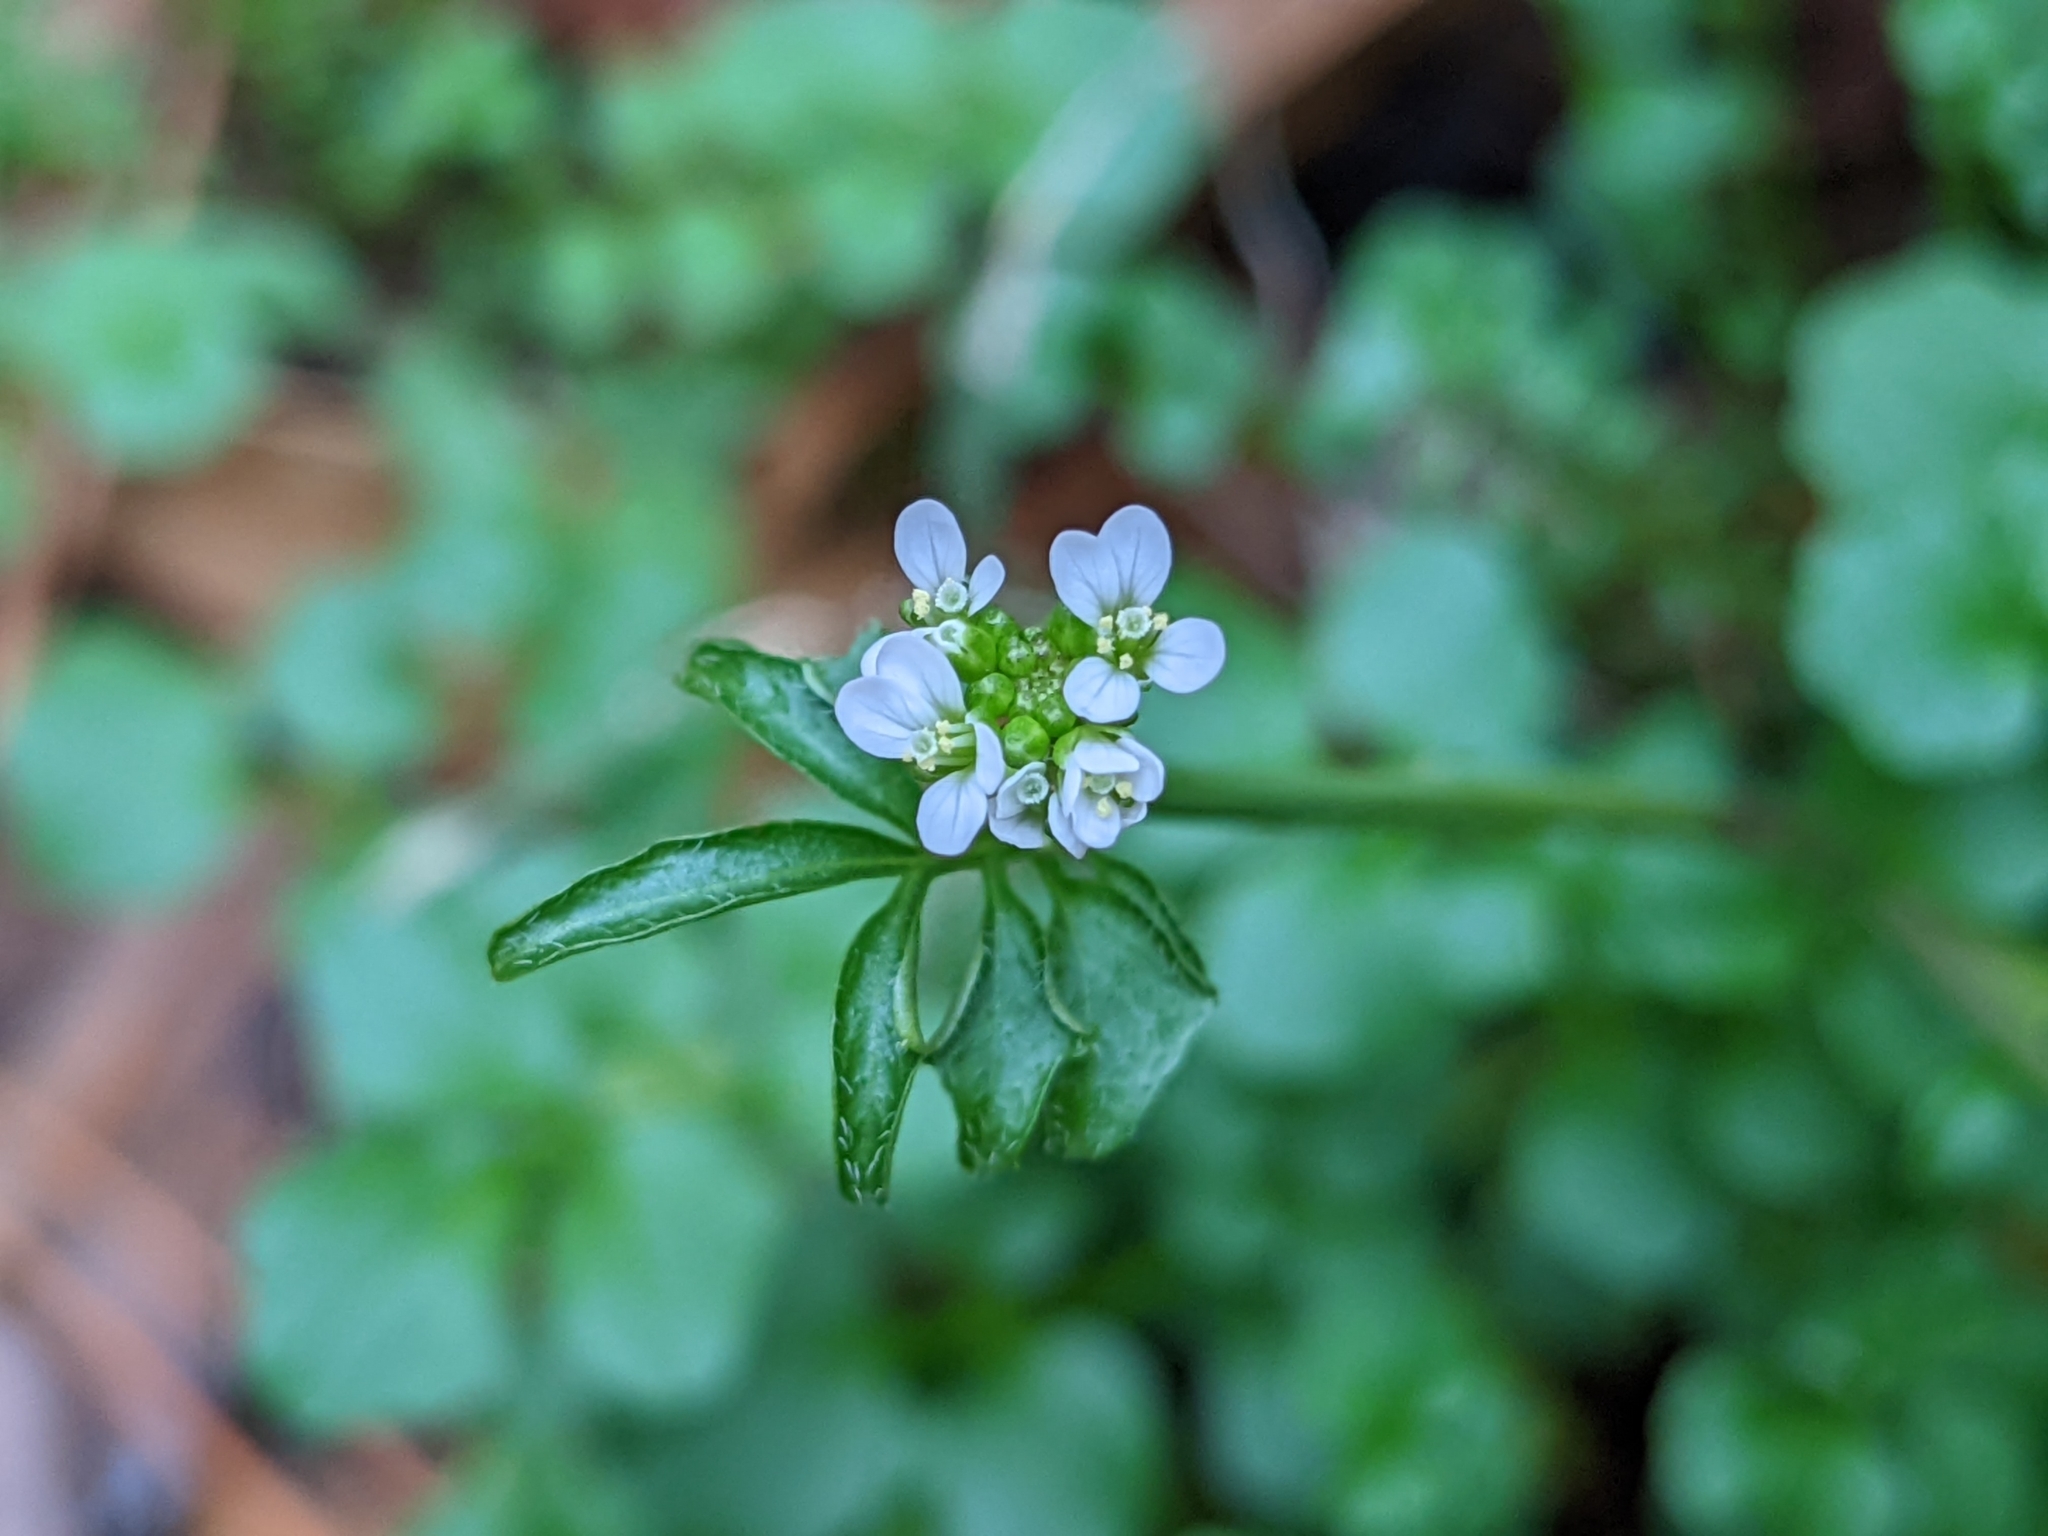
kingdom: Plantae
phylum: Tracheophyta
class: Magnoliopsida
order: Brassicales
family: Brassicaceae
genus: Cardamine
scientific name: Cardamine hirsuta
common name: Hairy bittercress
